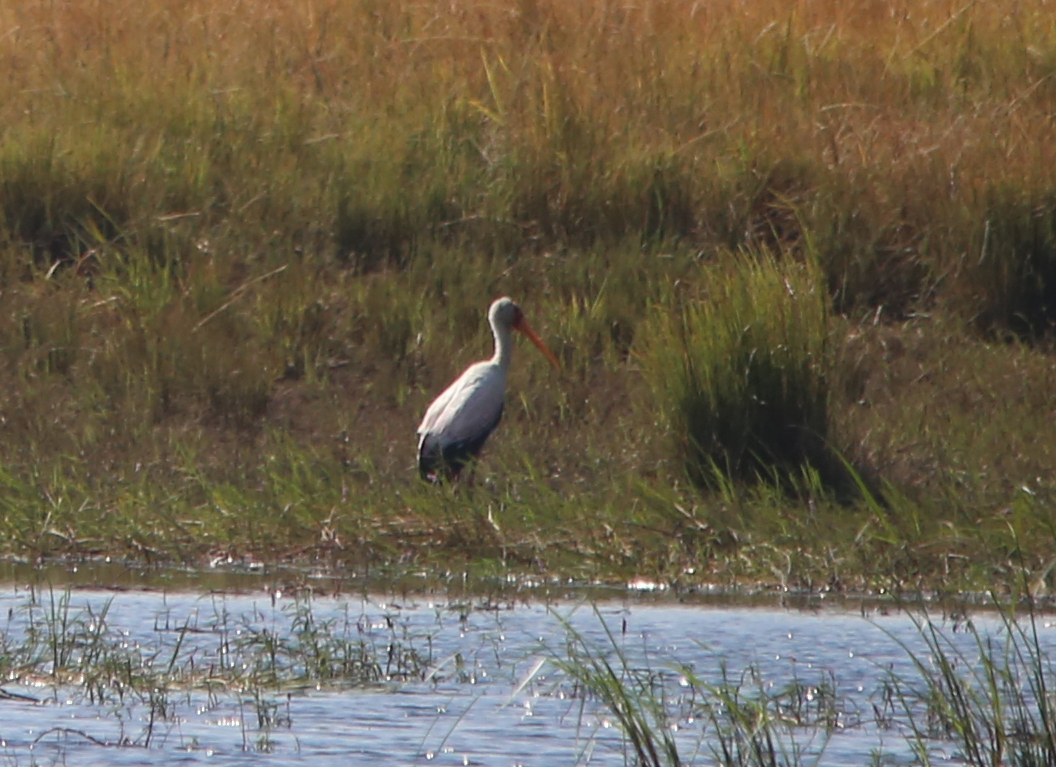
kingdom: Animalia
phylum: Chordata
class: Aves
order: Ciconiiformes
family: Ciconiidae
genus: Mycteria
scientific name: Mycteria ibis
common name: Yellow-billed stork
